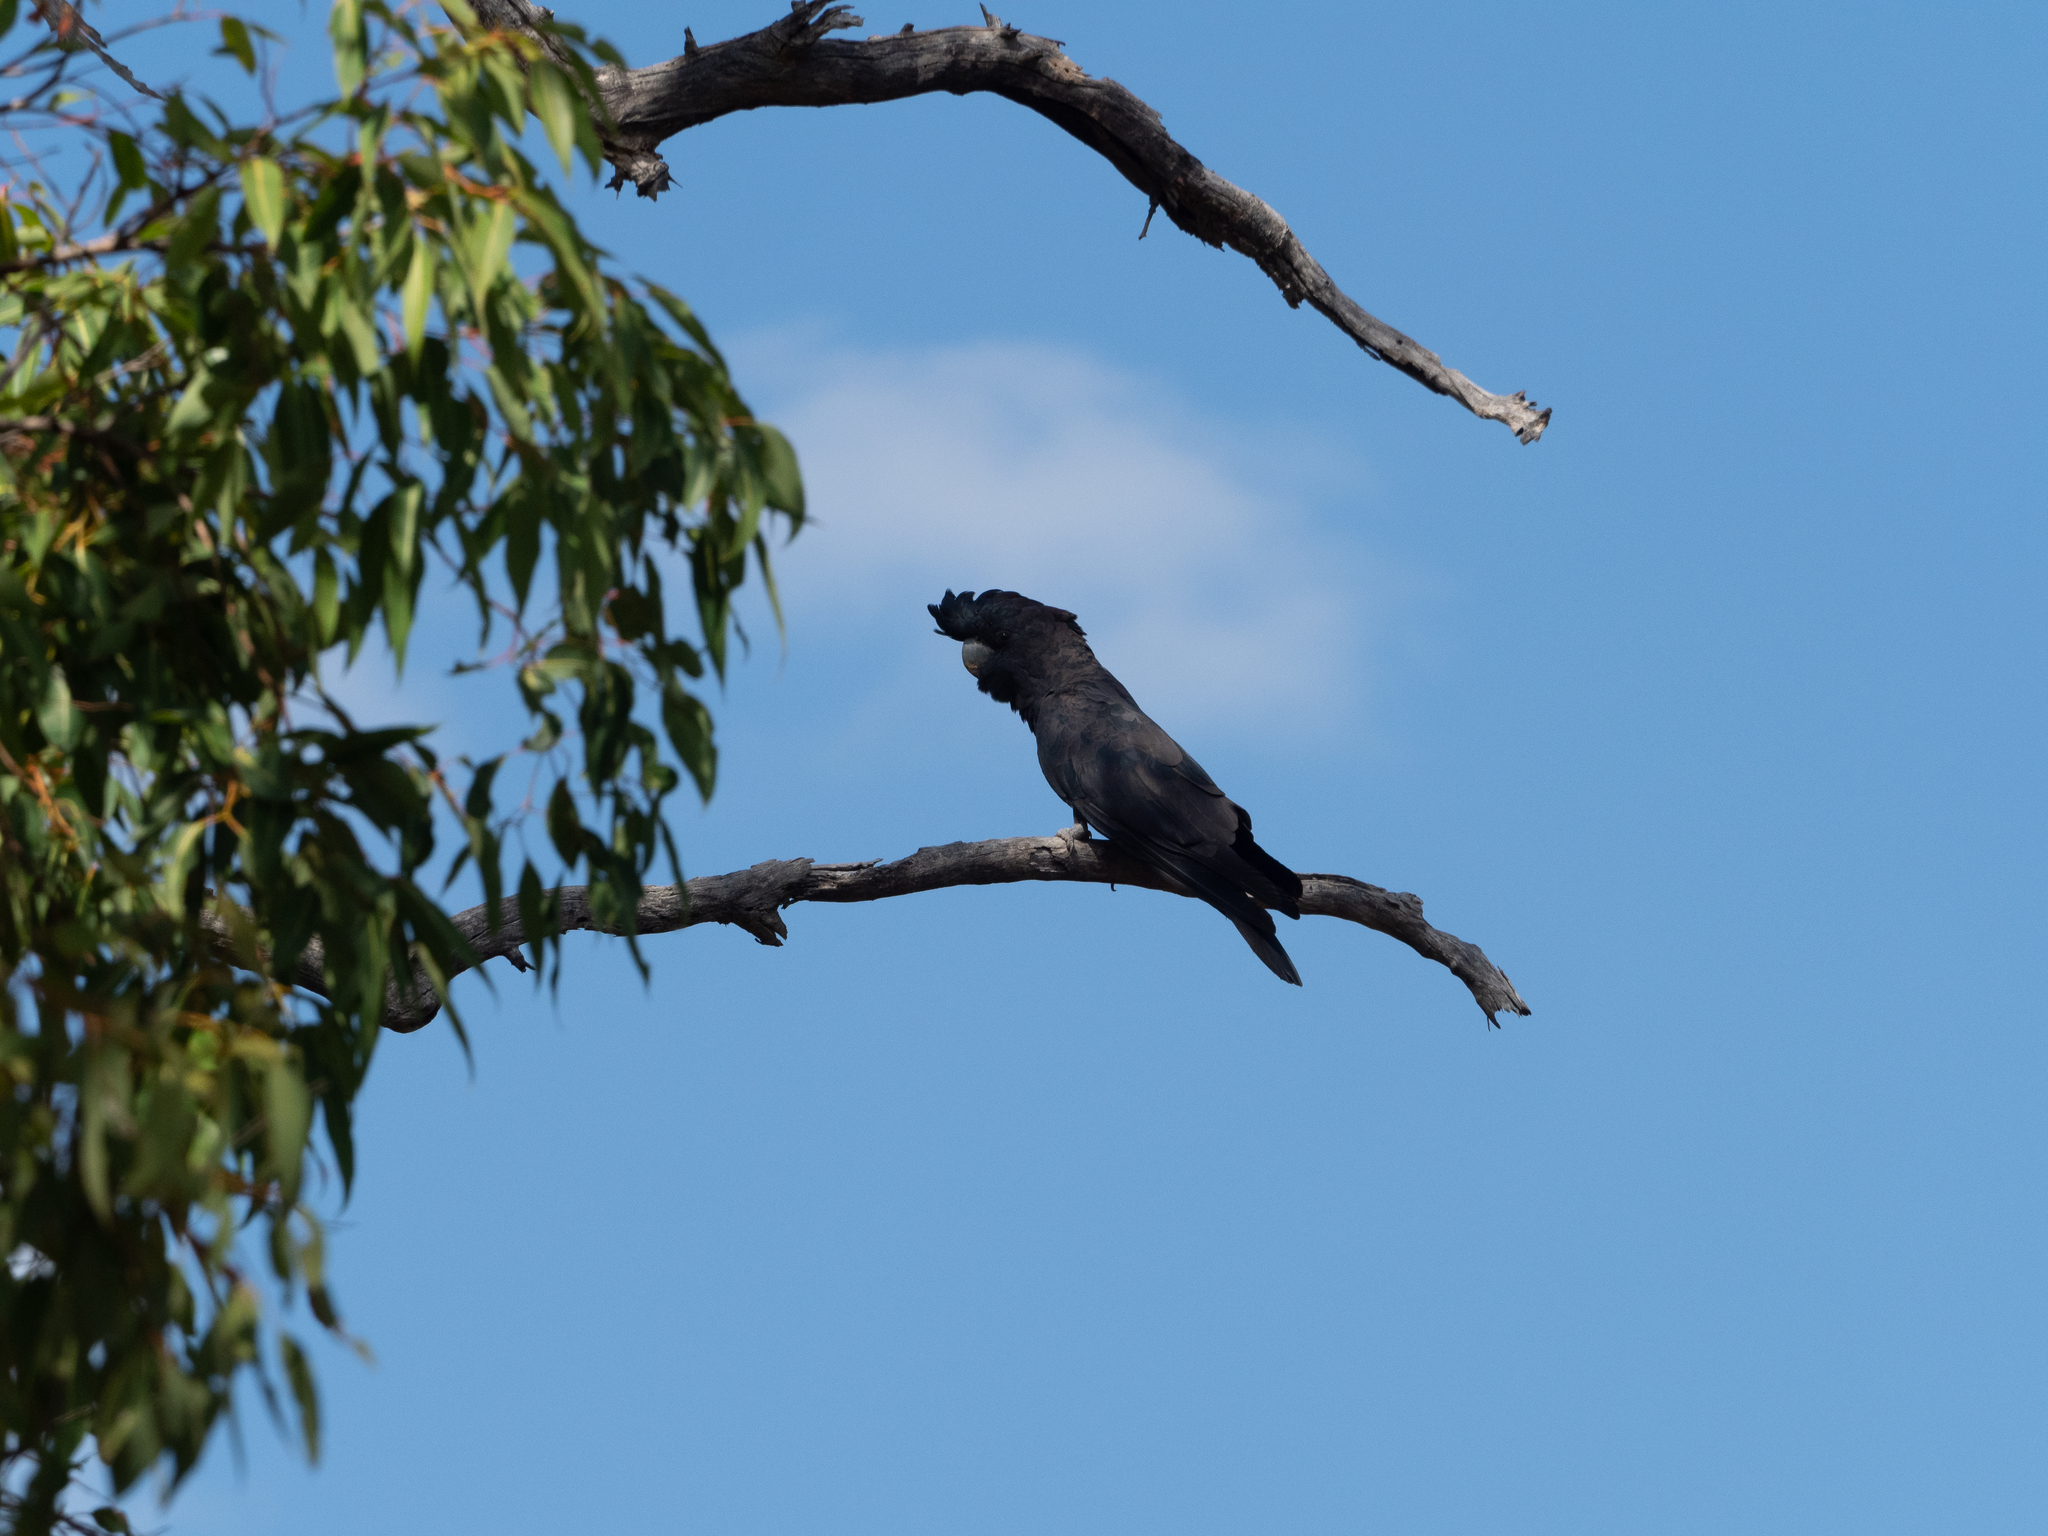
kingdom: Animalia
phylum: Chordata
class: Aves
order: Psittaciformes
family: Psittacidae
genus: Calyptorhynchus
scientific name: Calyptorhynchus banksii
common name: Red-tailed black cockatoo
